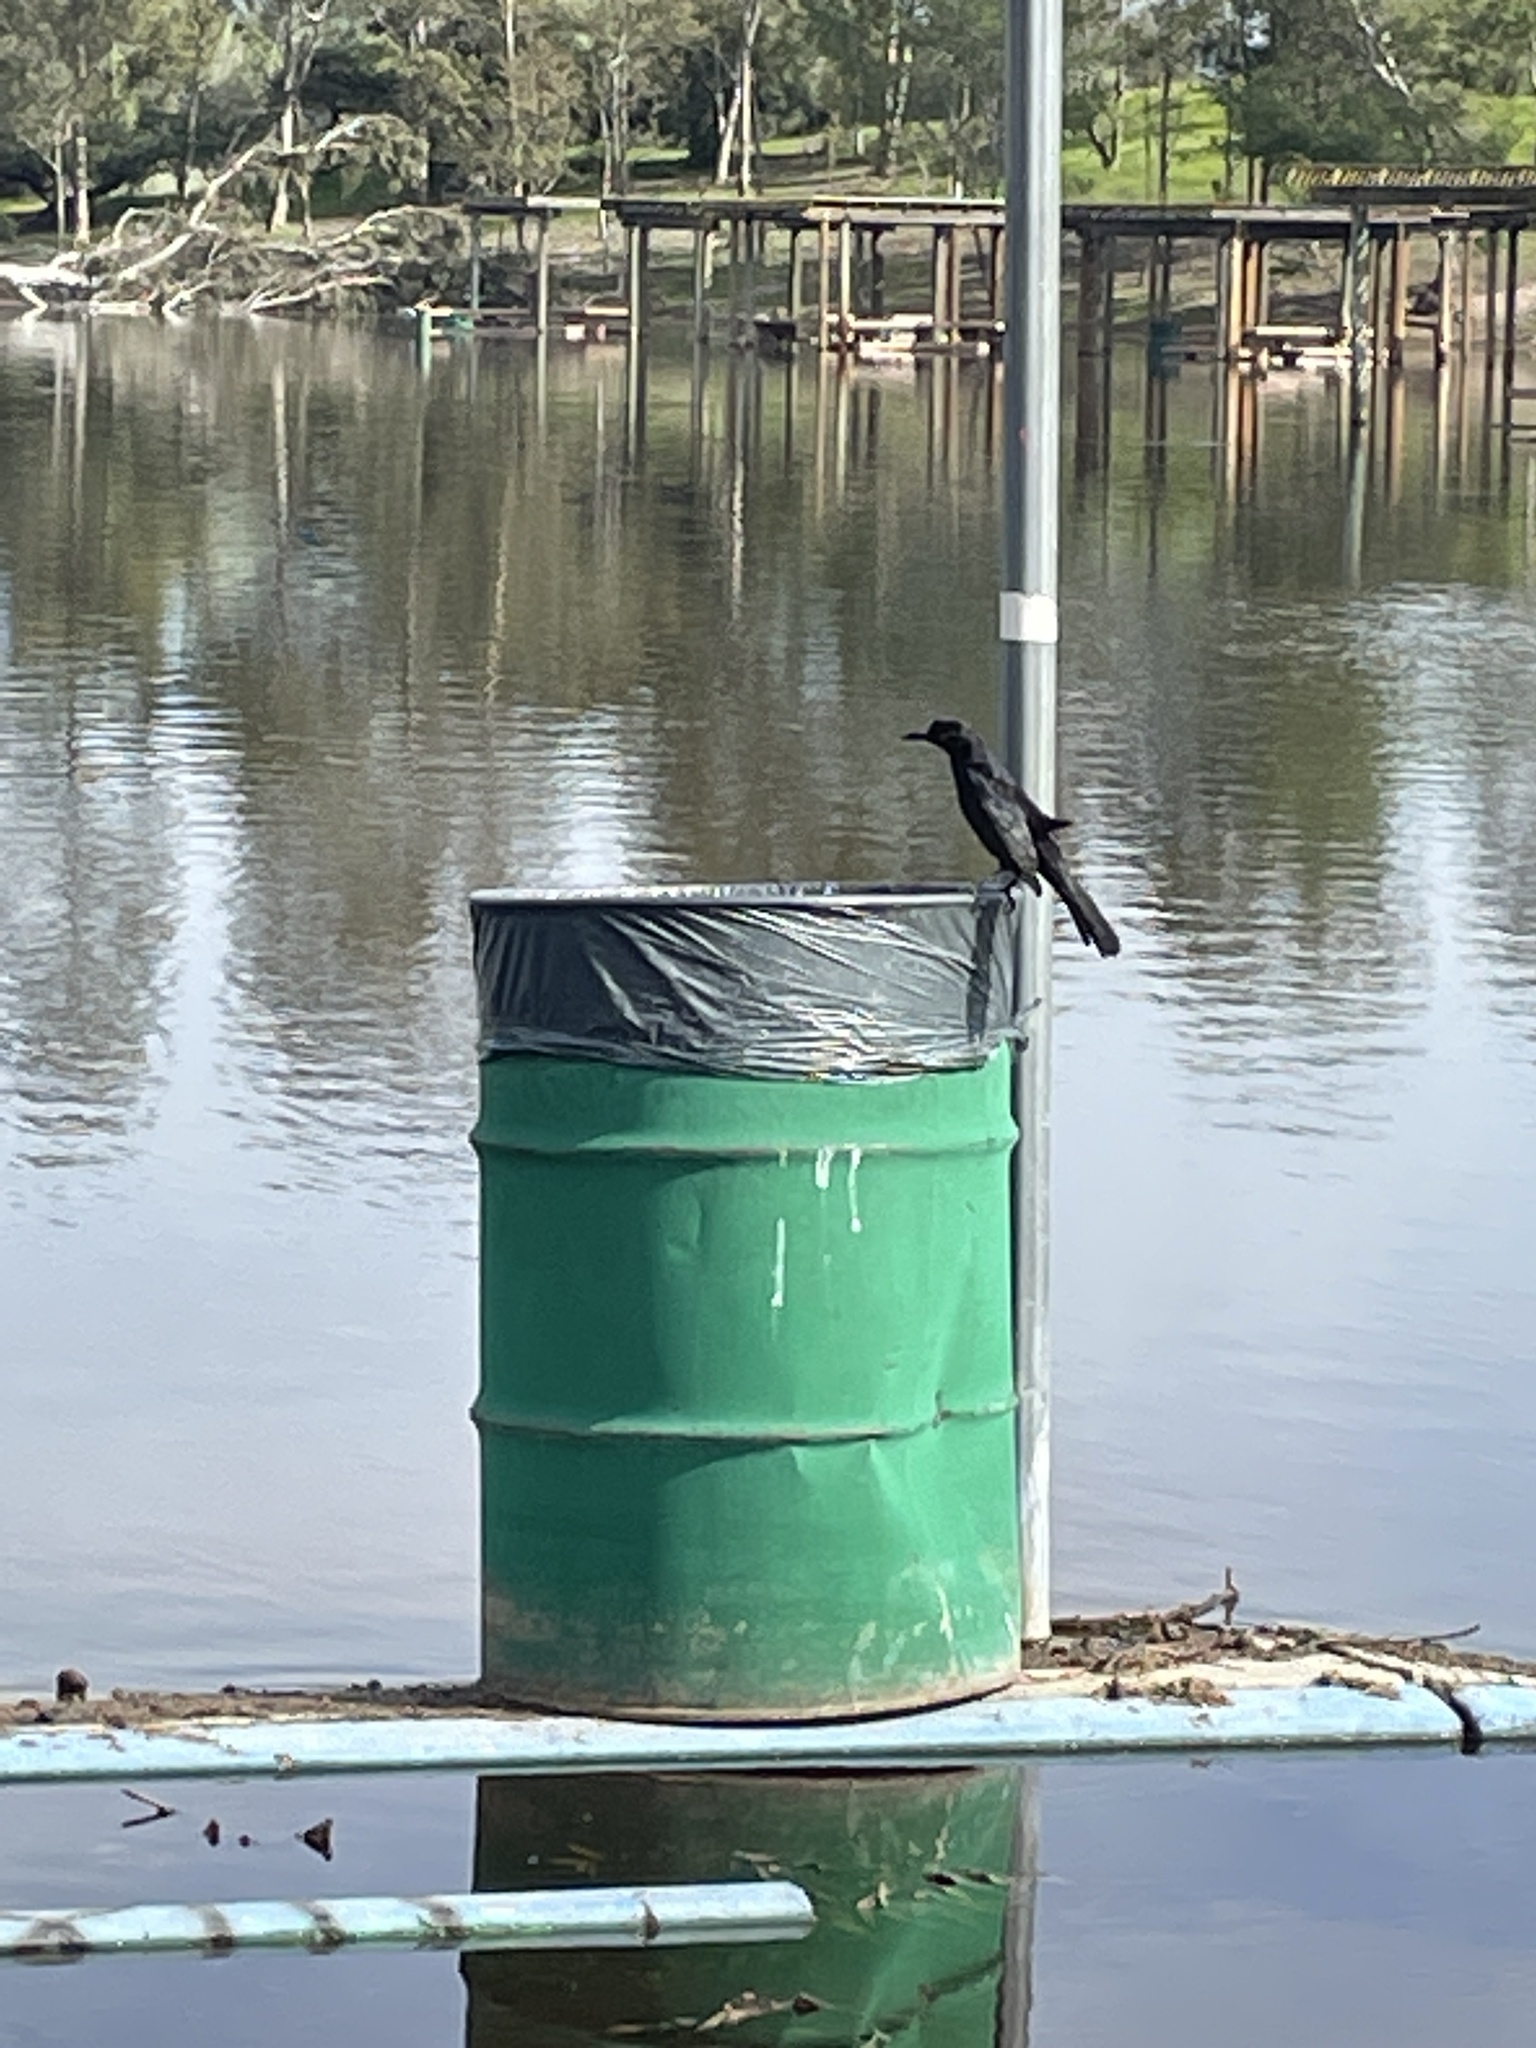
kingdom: Animalia
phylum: Chordata
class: Aves
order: Passeriformes
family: Icteridae
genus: Quiscalus
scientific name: Quiscalus mexicanus
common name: Great-tailed grackle
